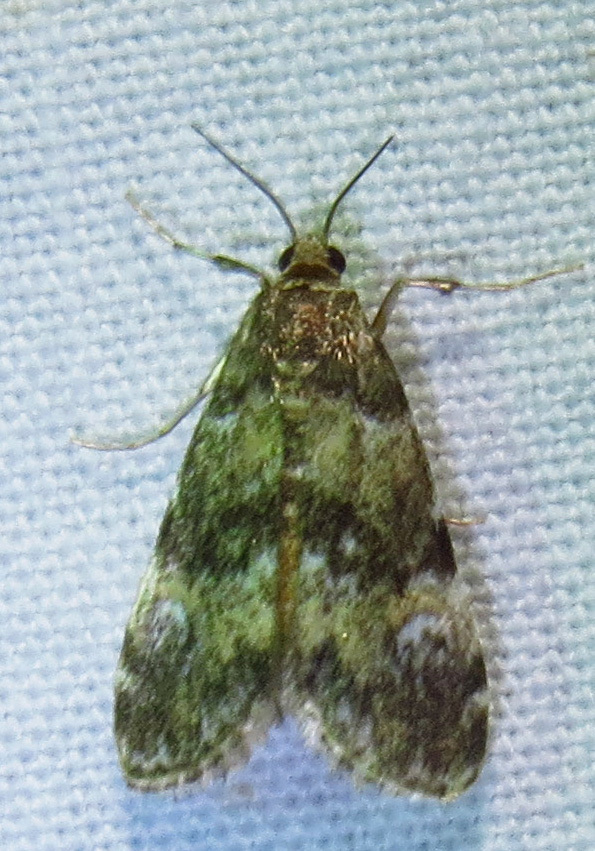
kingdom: Animalia
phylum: Arthropoda
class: Insecta
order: Lepidoptera
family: Crambidae
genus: Elophila
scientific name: Elophila obliteralis
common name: Waterlily leafcutter moth
